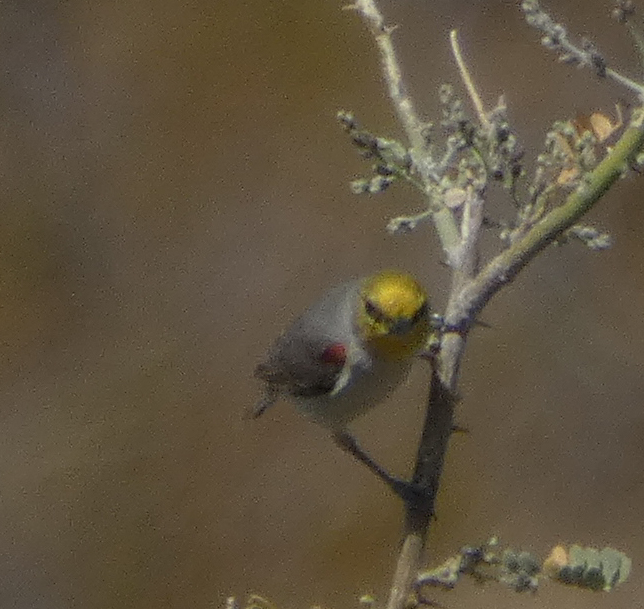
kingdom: Animalia
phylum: Chordata
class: Aves
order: Passeriformes
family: Remizidae
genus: Auriparus
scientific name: Auriparus flaviceps
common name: Verdin
